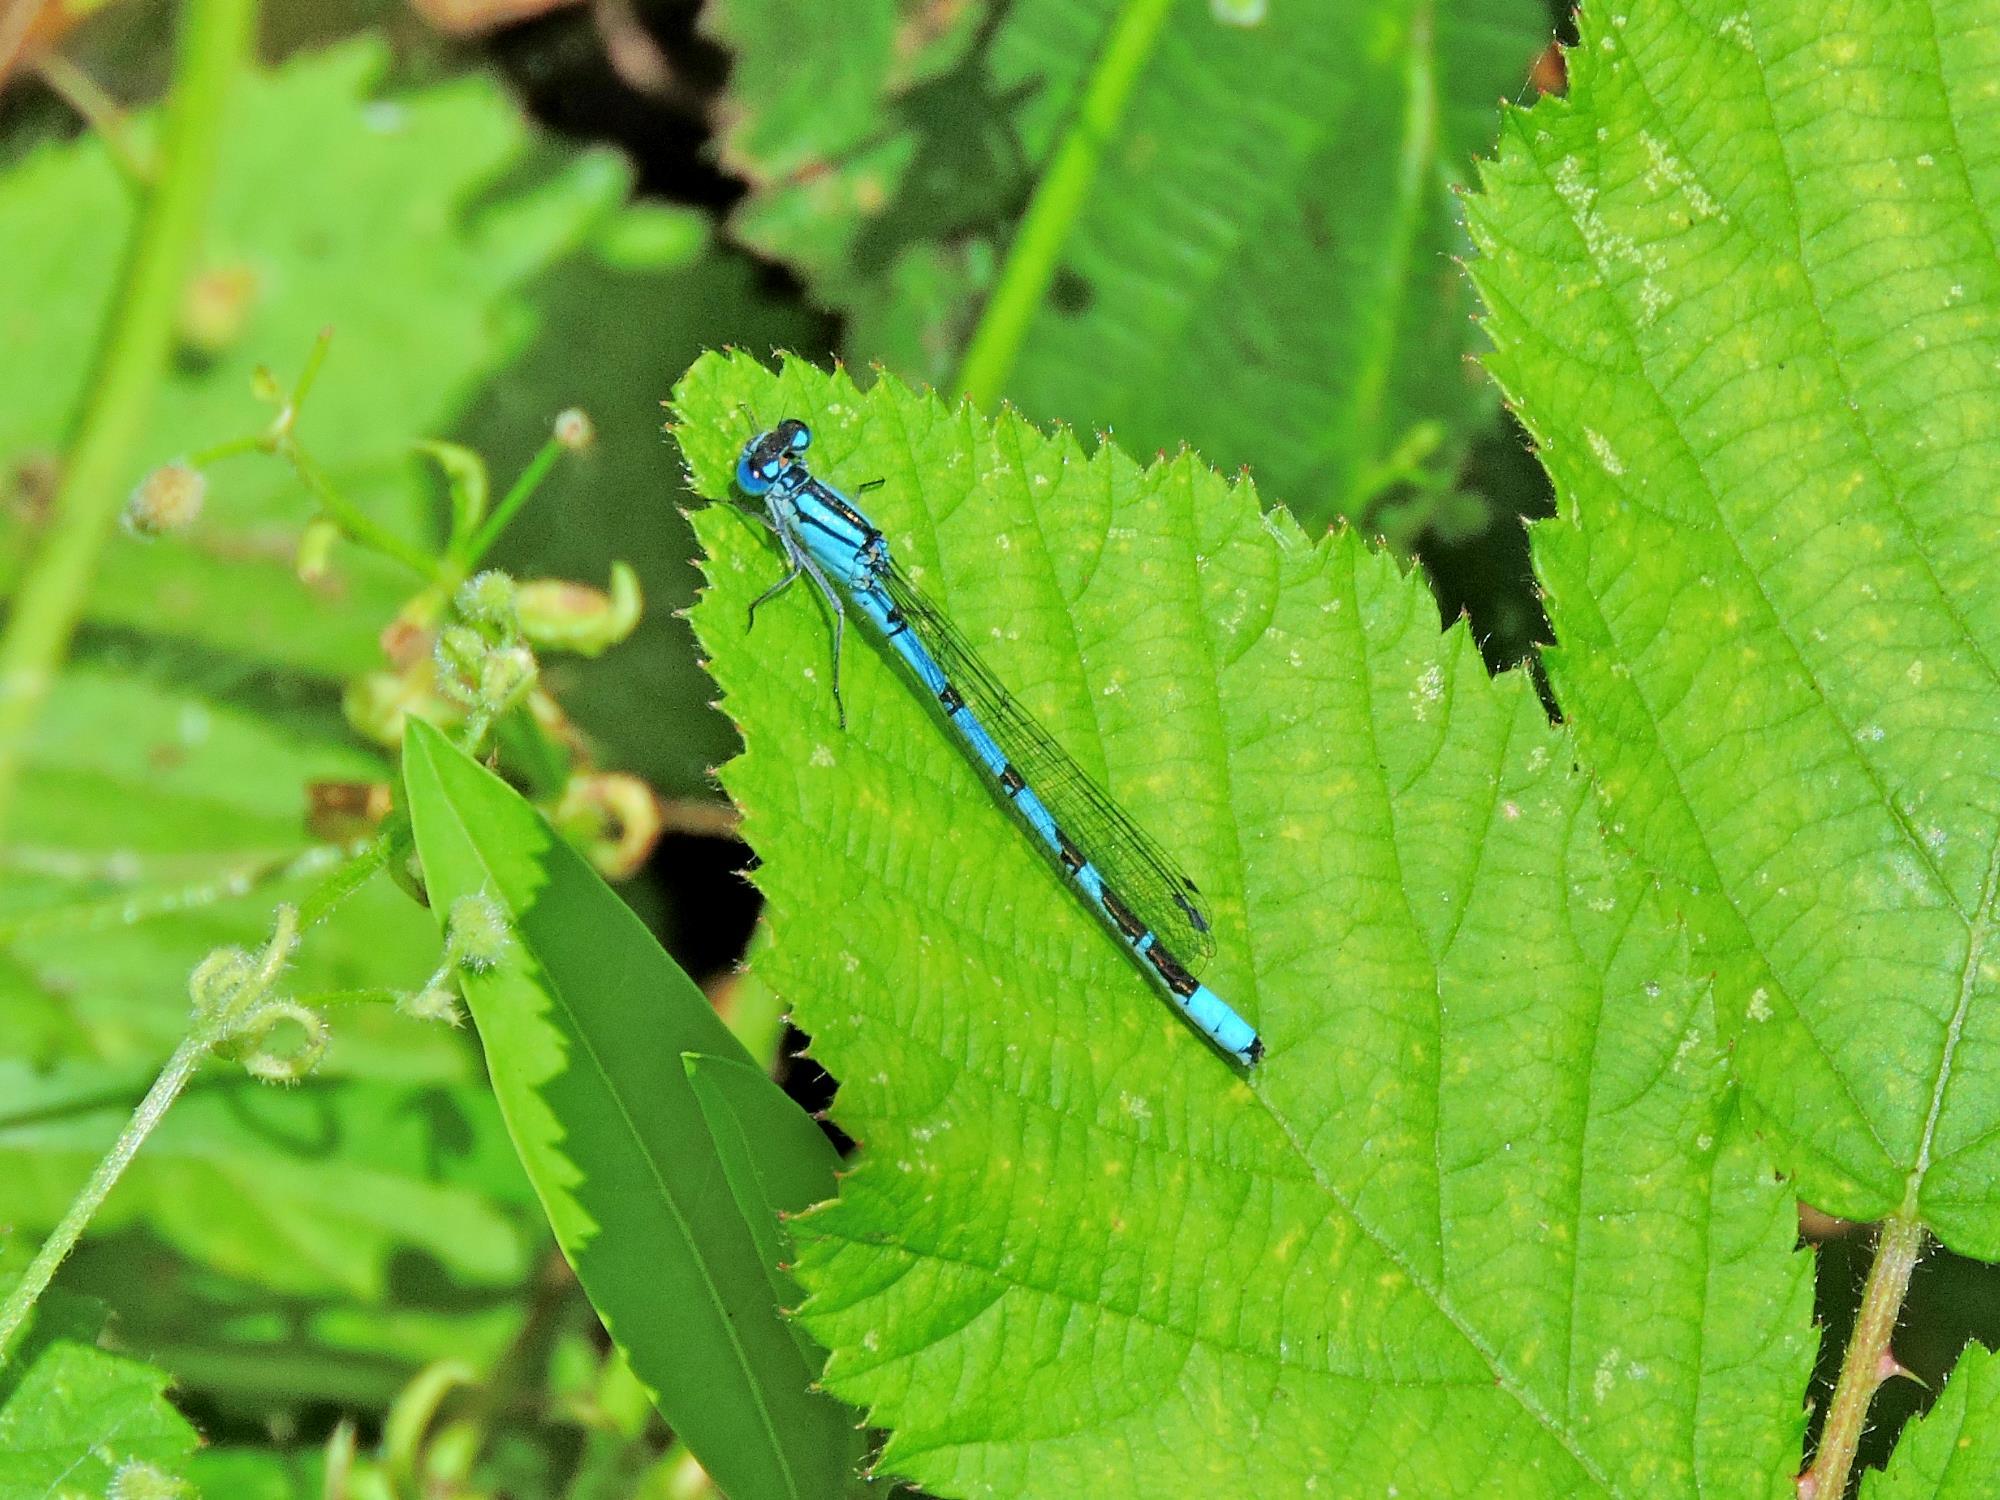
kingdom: Animalia
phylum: Arthropoda
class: Insecta
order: Odonata
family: Coenagrionidae
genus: Enallagma
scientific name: Enallagma cyathigerum
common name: Common blue damselfly
